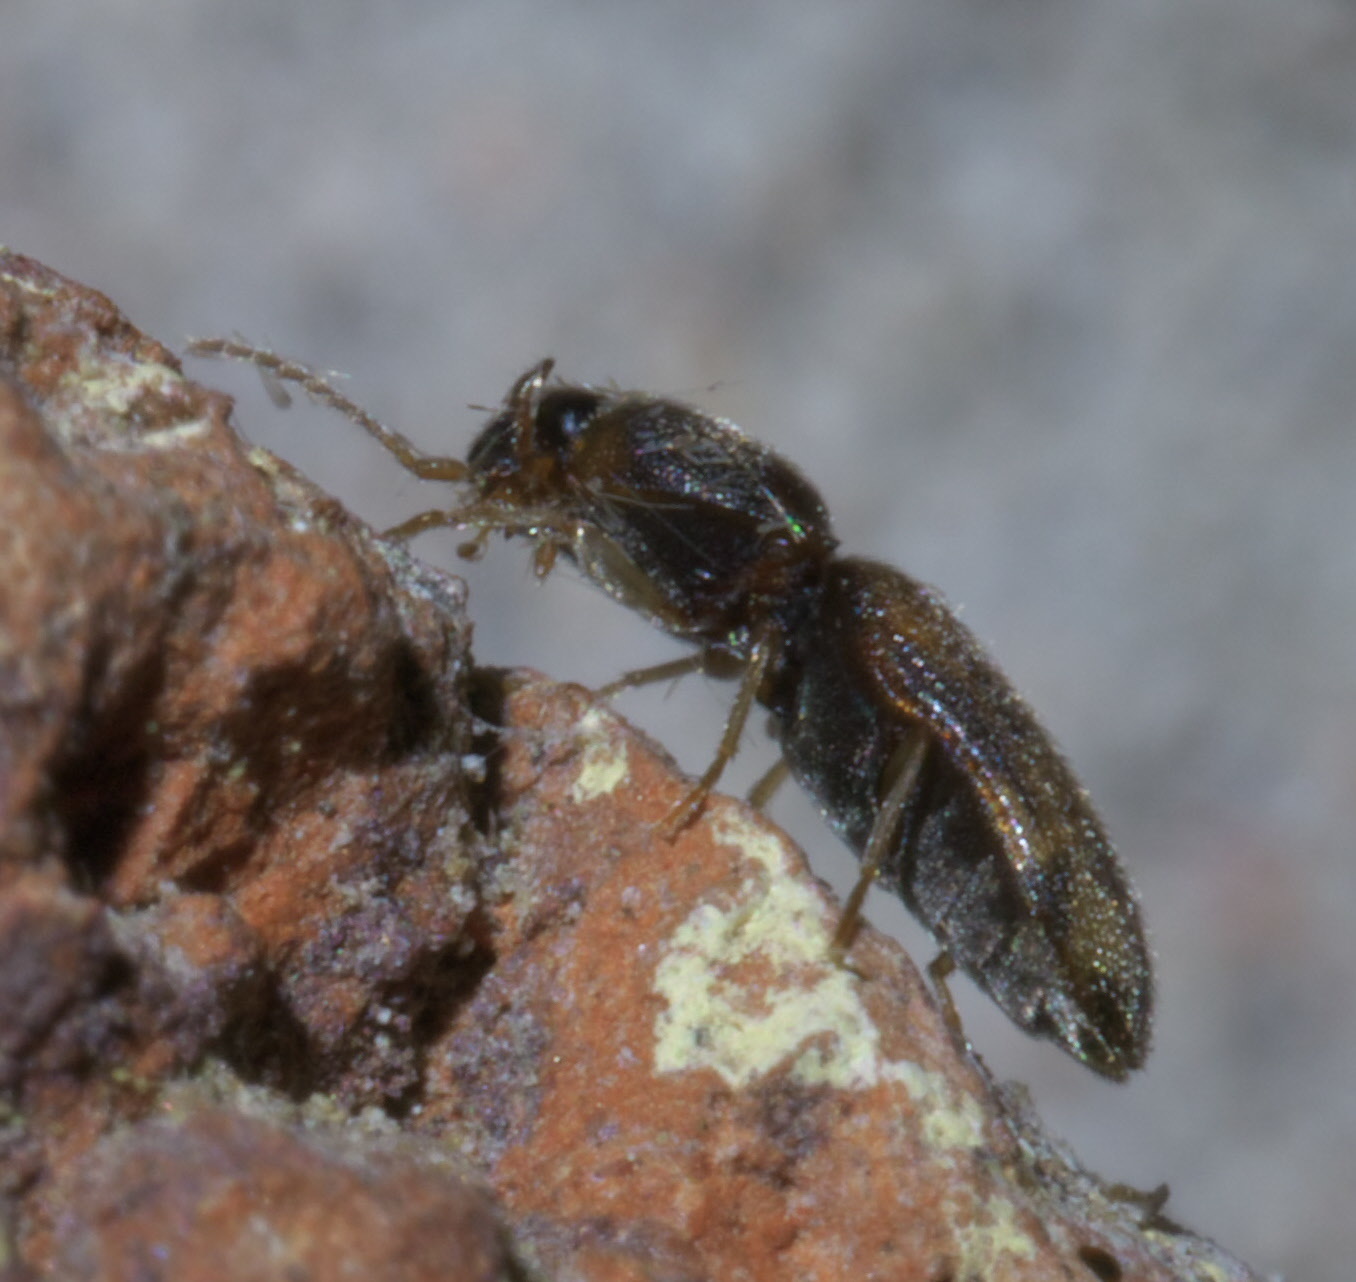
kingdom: Animalia
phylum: Arthropoda
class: Insecta
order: Coleoptera
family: Elateridae
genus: Monocrepidius
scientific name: Monocrepidius bellus
